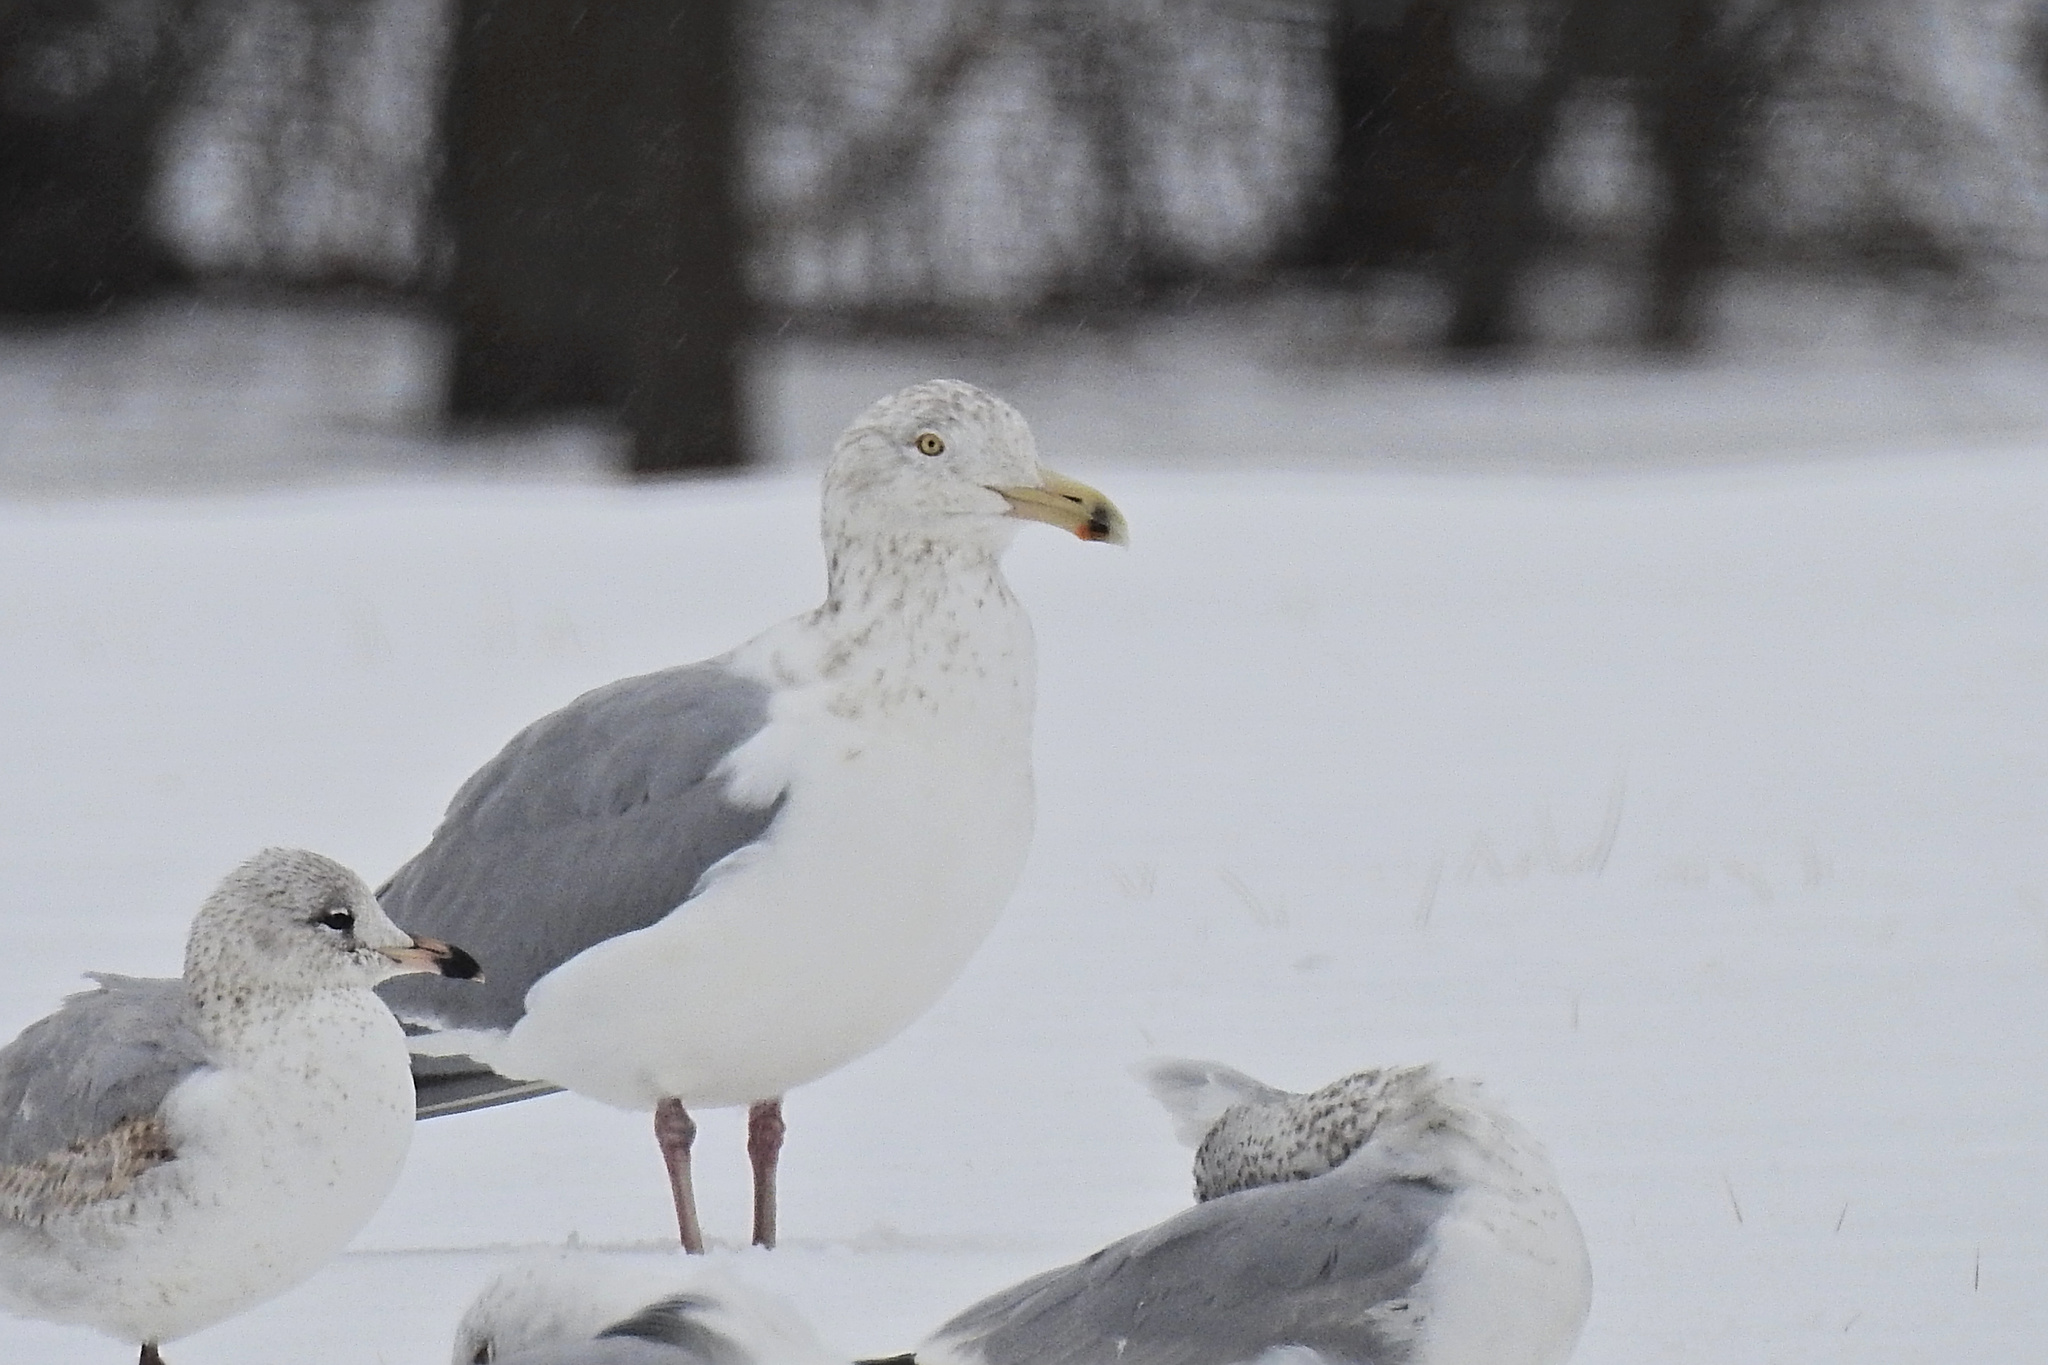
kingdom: Animalia
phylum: Chordata
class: Aves
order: Charadriiformes
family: Laridae
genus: Larus
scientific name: Larus argentatus
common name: Herring gull
